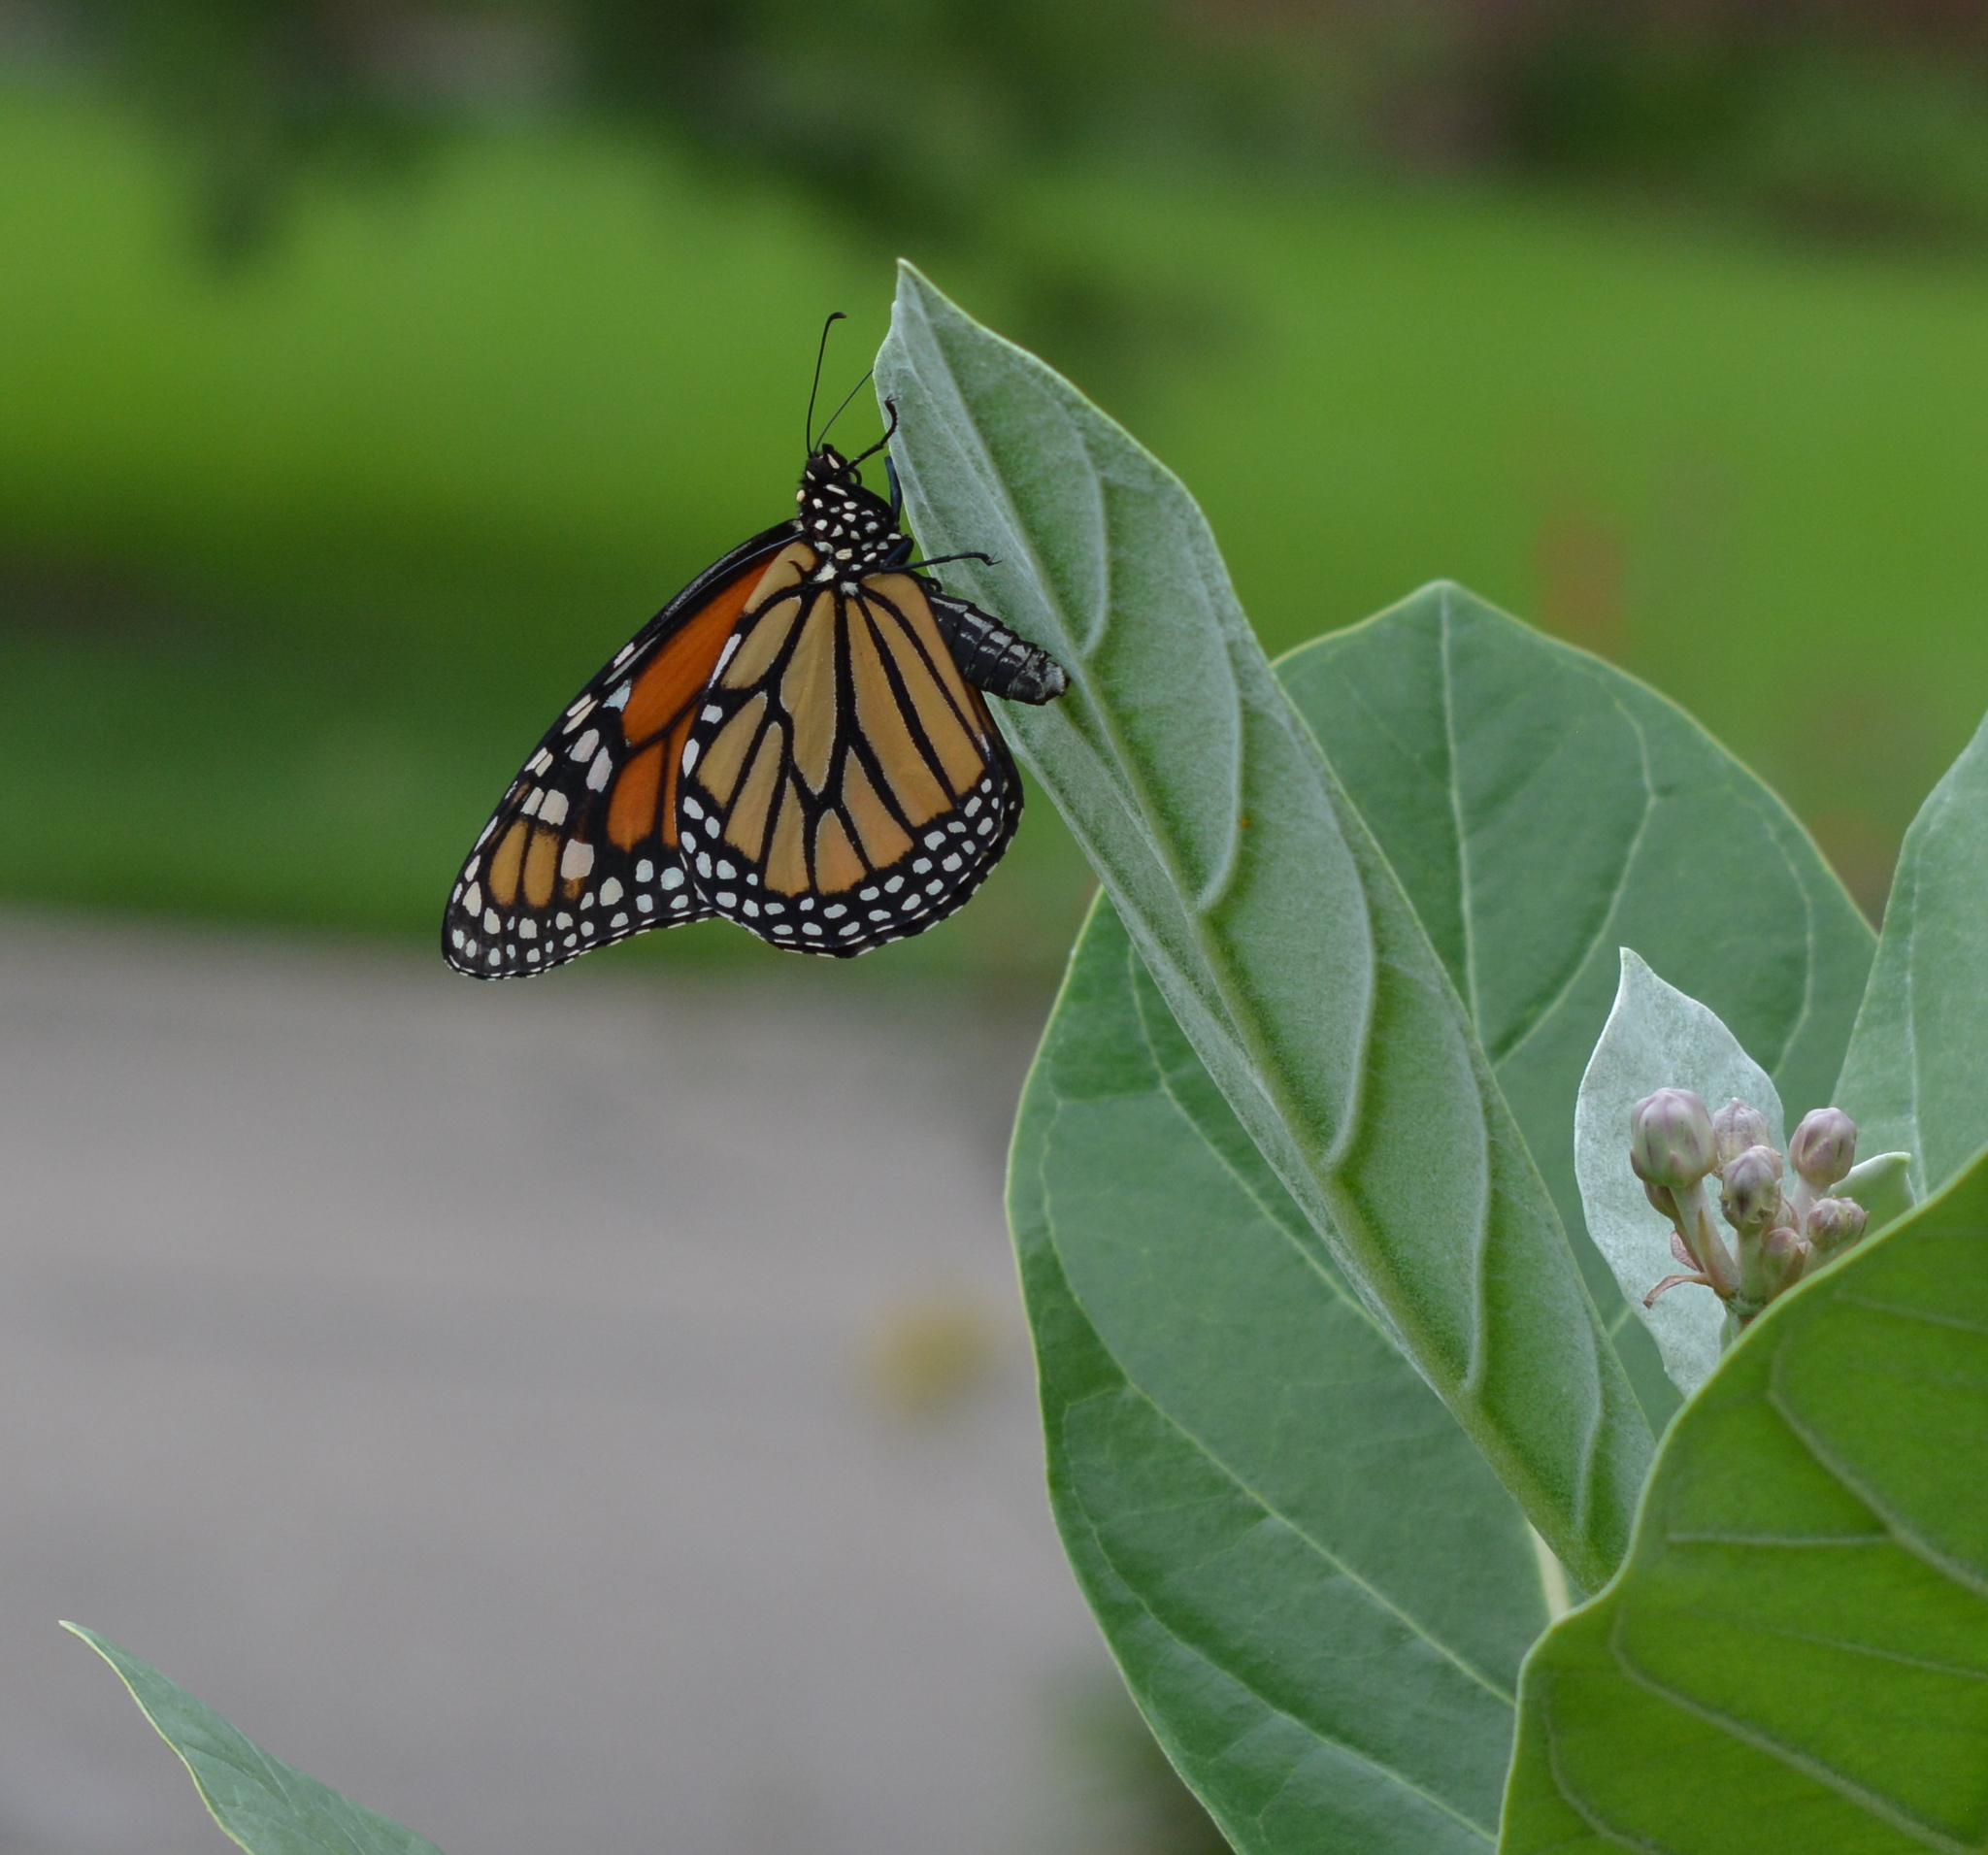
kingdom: Animalia
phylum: Arthropoda
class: Insecta
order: Lepidoptera
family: Nymphalidae
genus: Danaus
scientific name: Danaus plexippus
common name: Monarch
